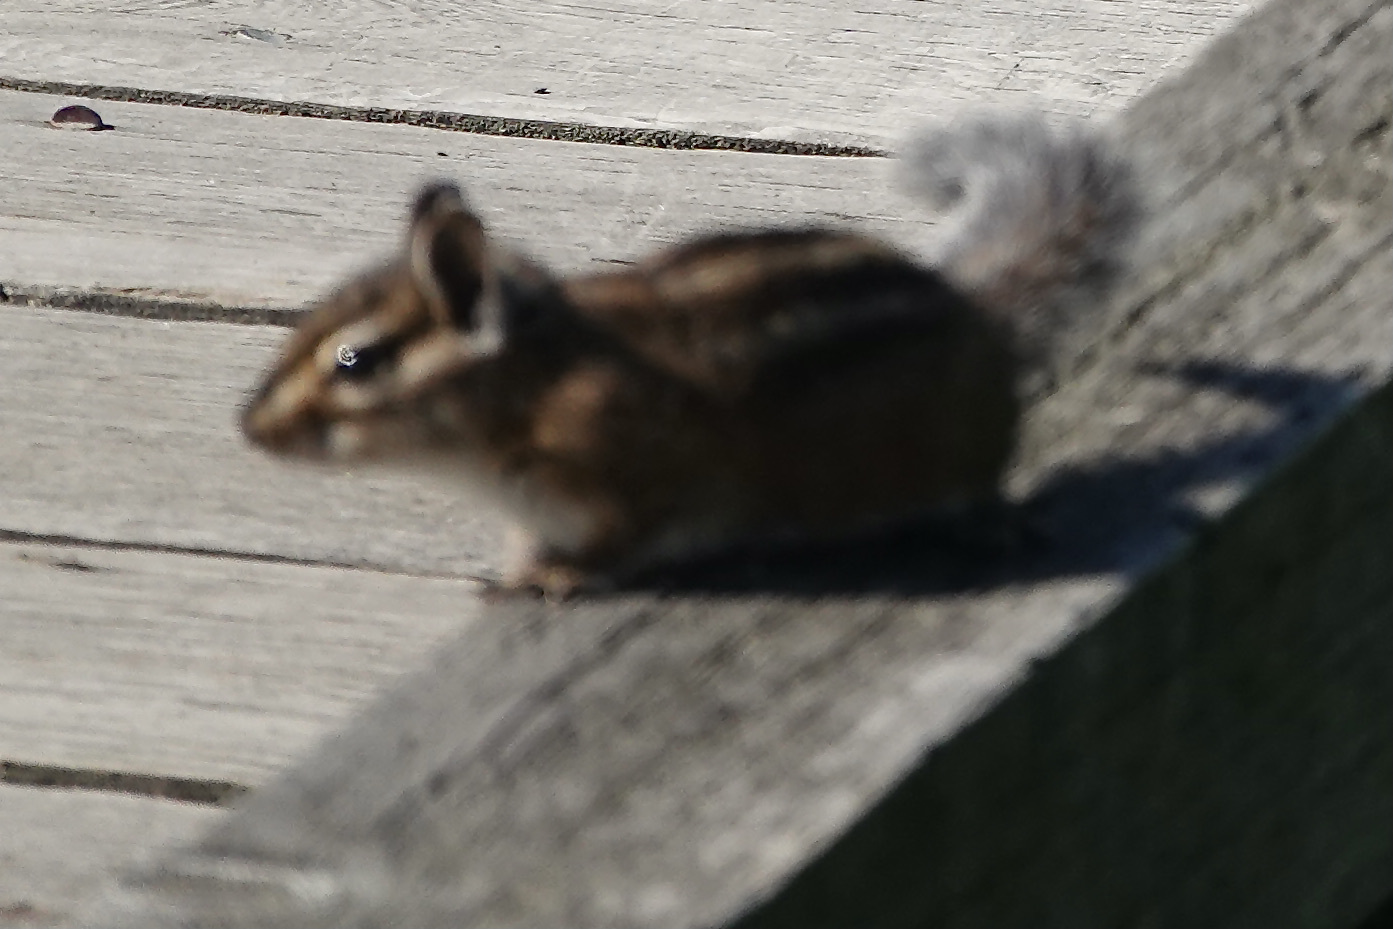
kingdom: Animalia
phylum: Chordata
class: Mammalia
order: Rodentia
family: Sciuridae
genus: Tamias
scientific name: Tamias townsendii
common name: Townsend's chipmunk
